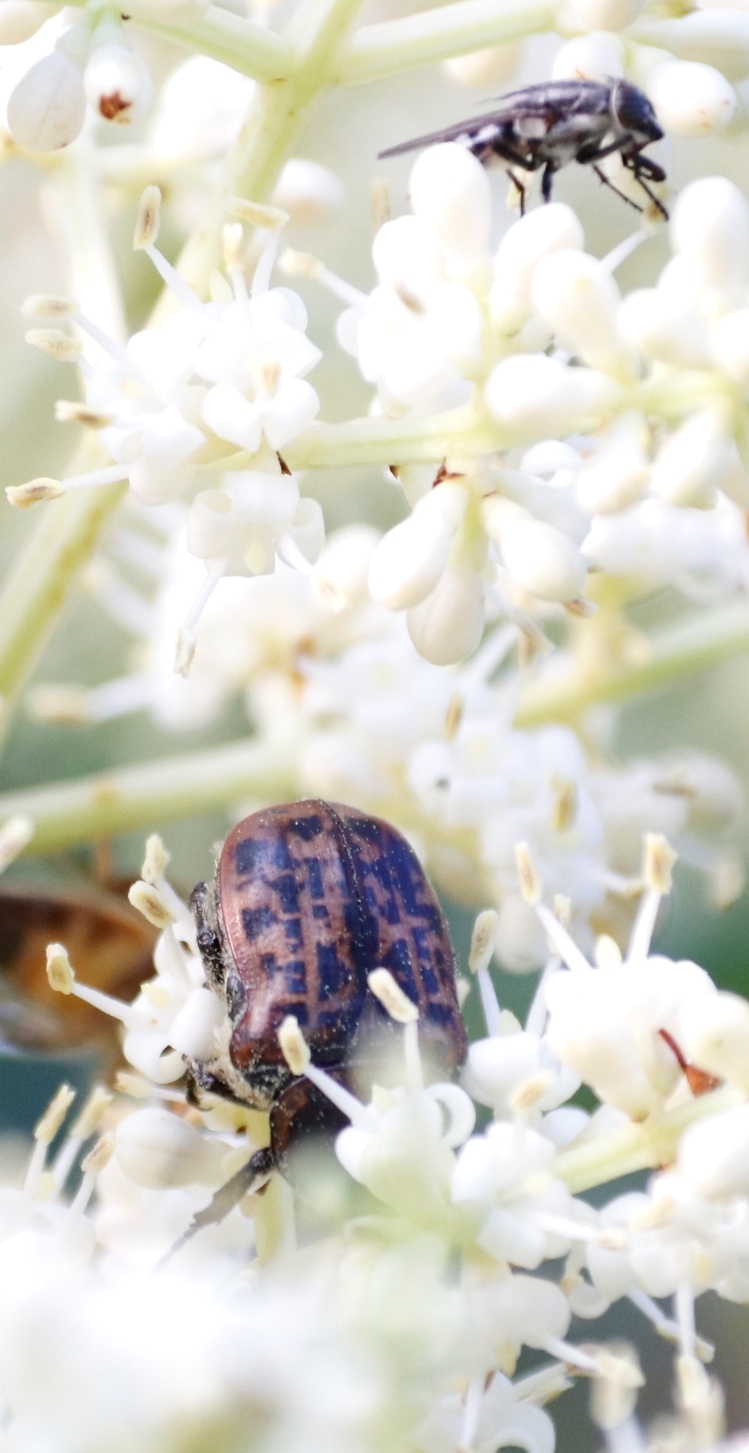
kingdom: Animalia
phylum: Arthropoda
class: Insecta
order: Coleoptera
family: Scarabaeidae
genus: Atrichelaphinis
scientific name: Atrichelaphinis tigrina
